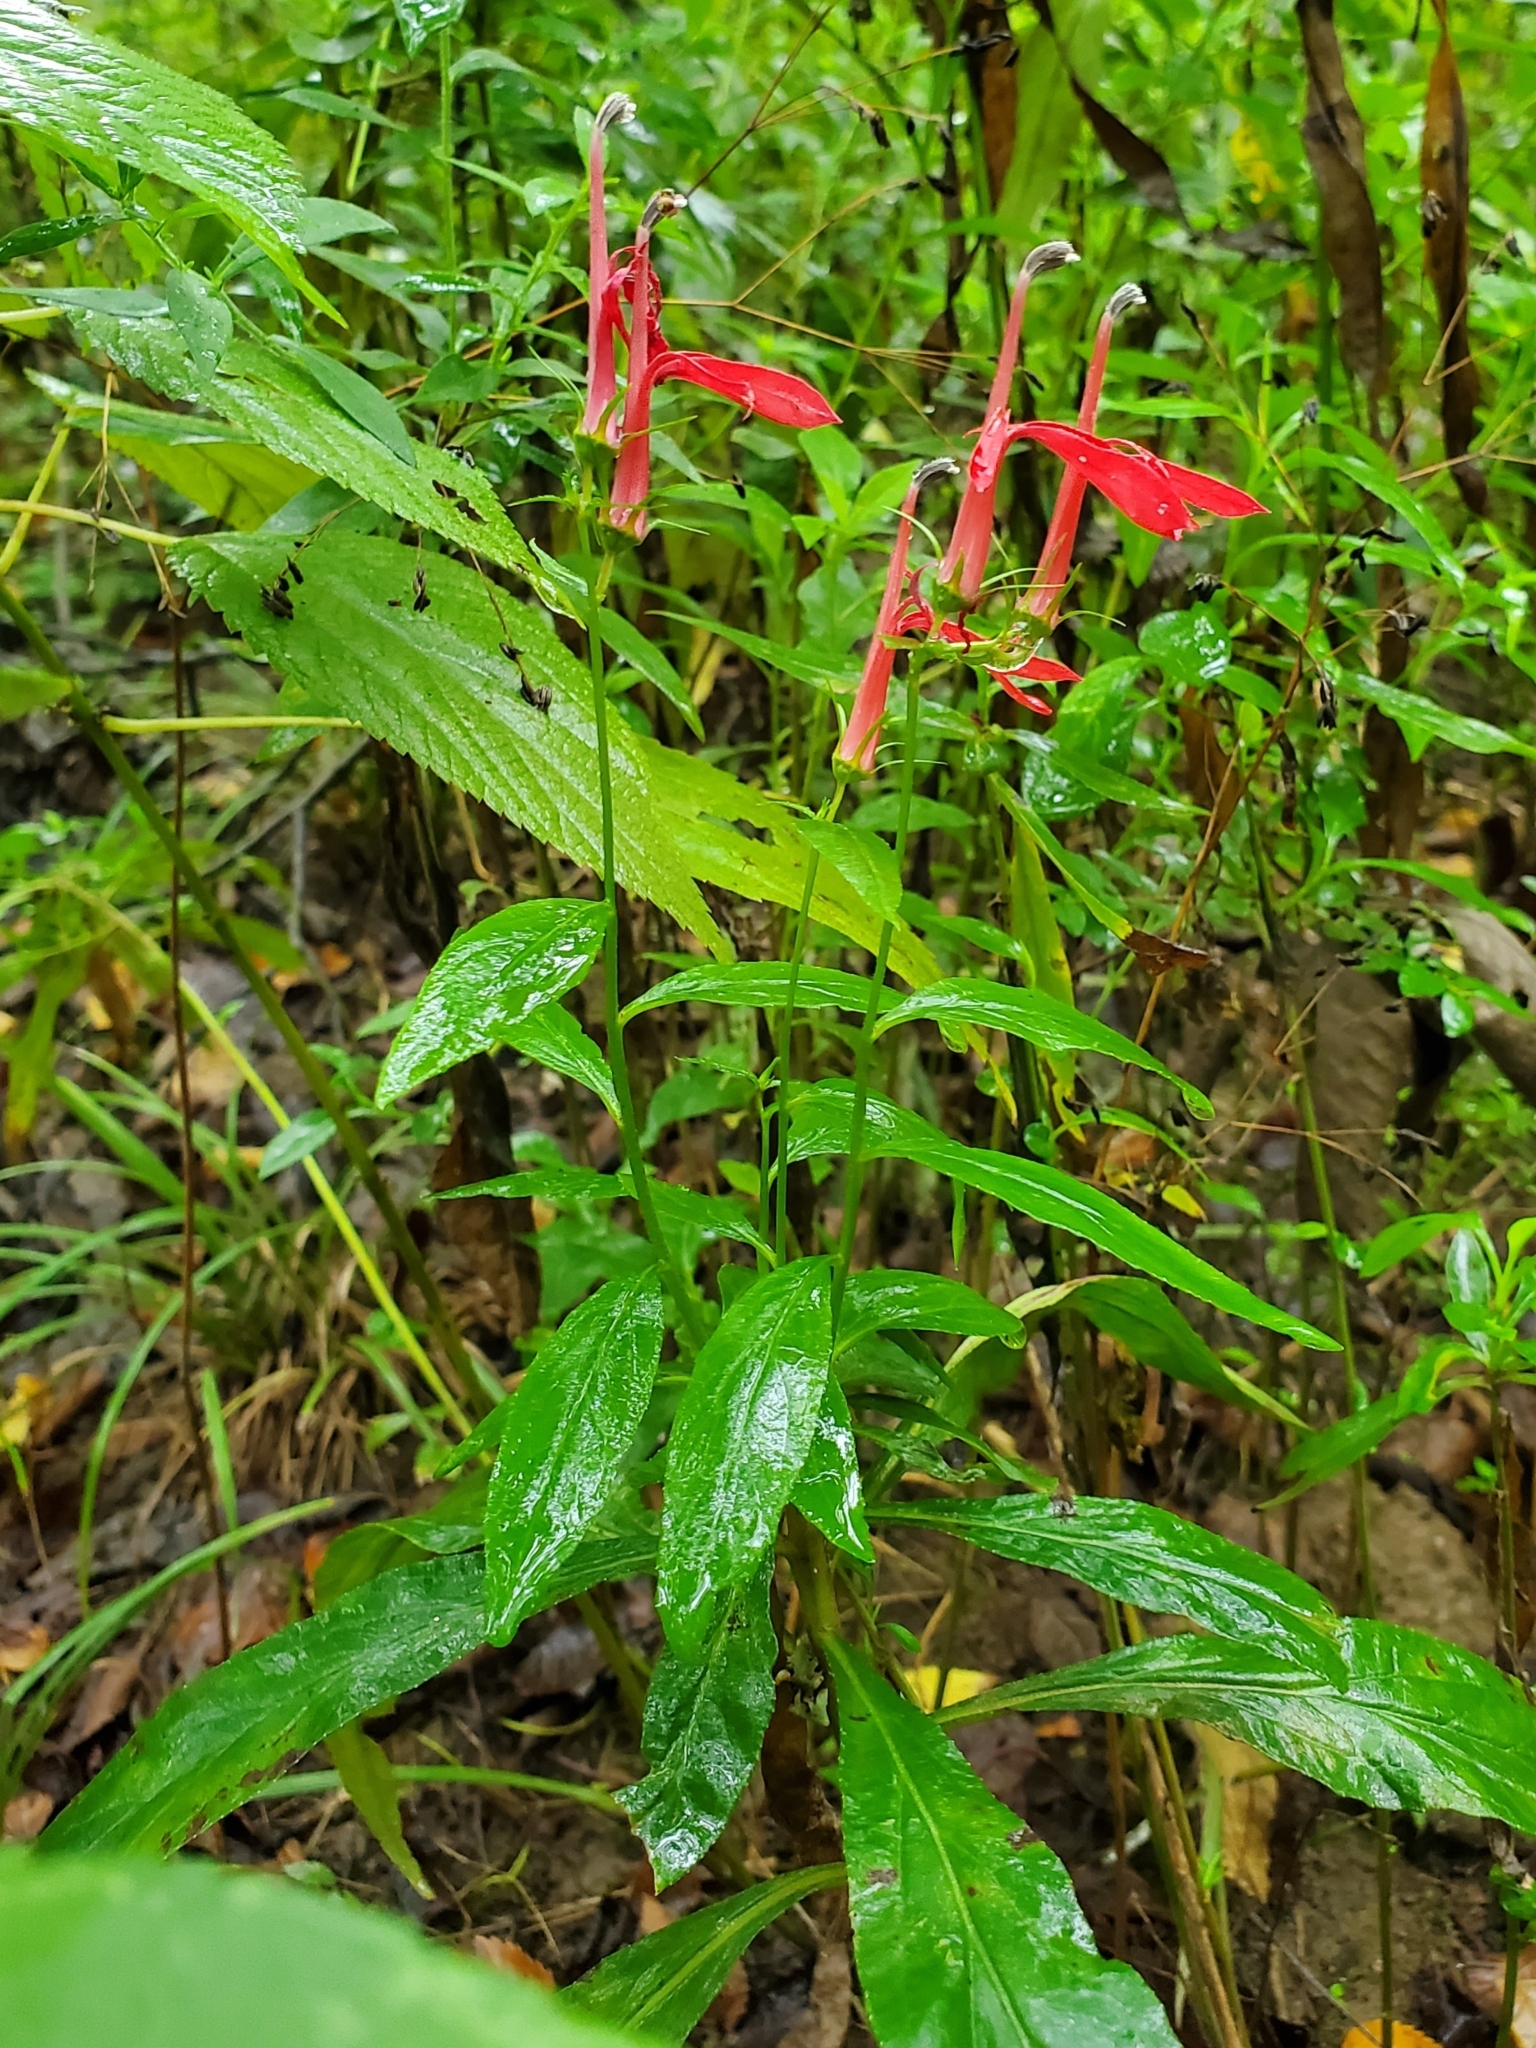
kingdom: Plantae
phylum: Tracheophyta
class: Magnoliopsida
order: Asterales
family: Campanulaceae
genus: Lobelia
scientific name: Lobelia cardinalis
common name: Cardinal flower
